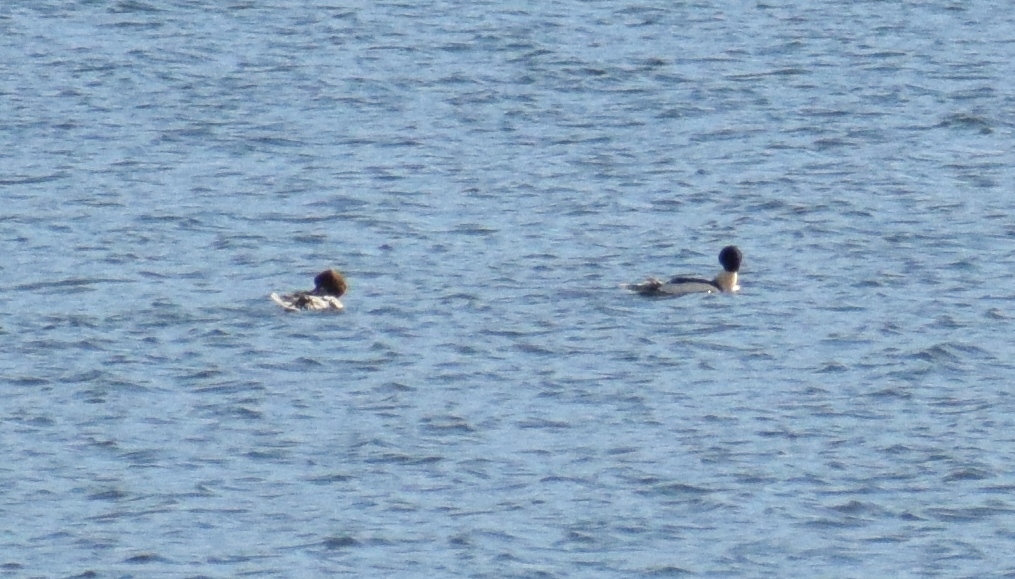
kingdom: Animalia
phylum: Chordata
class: Aves
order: Anseriformes
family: Anatidae
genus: Mergus
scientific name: Mergus merganser
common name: Common merganser
